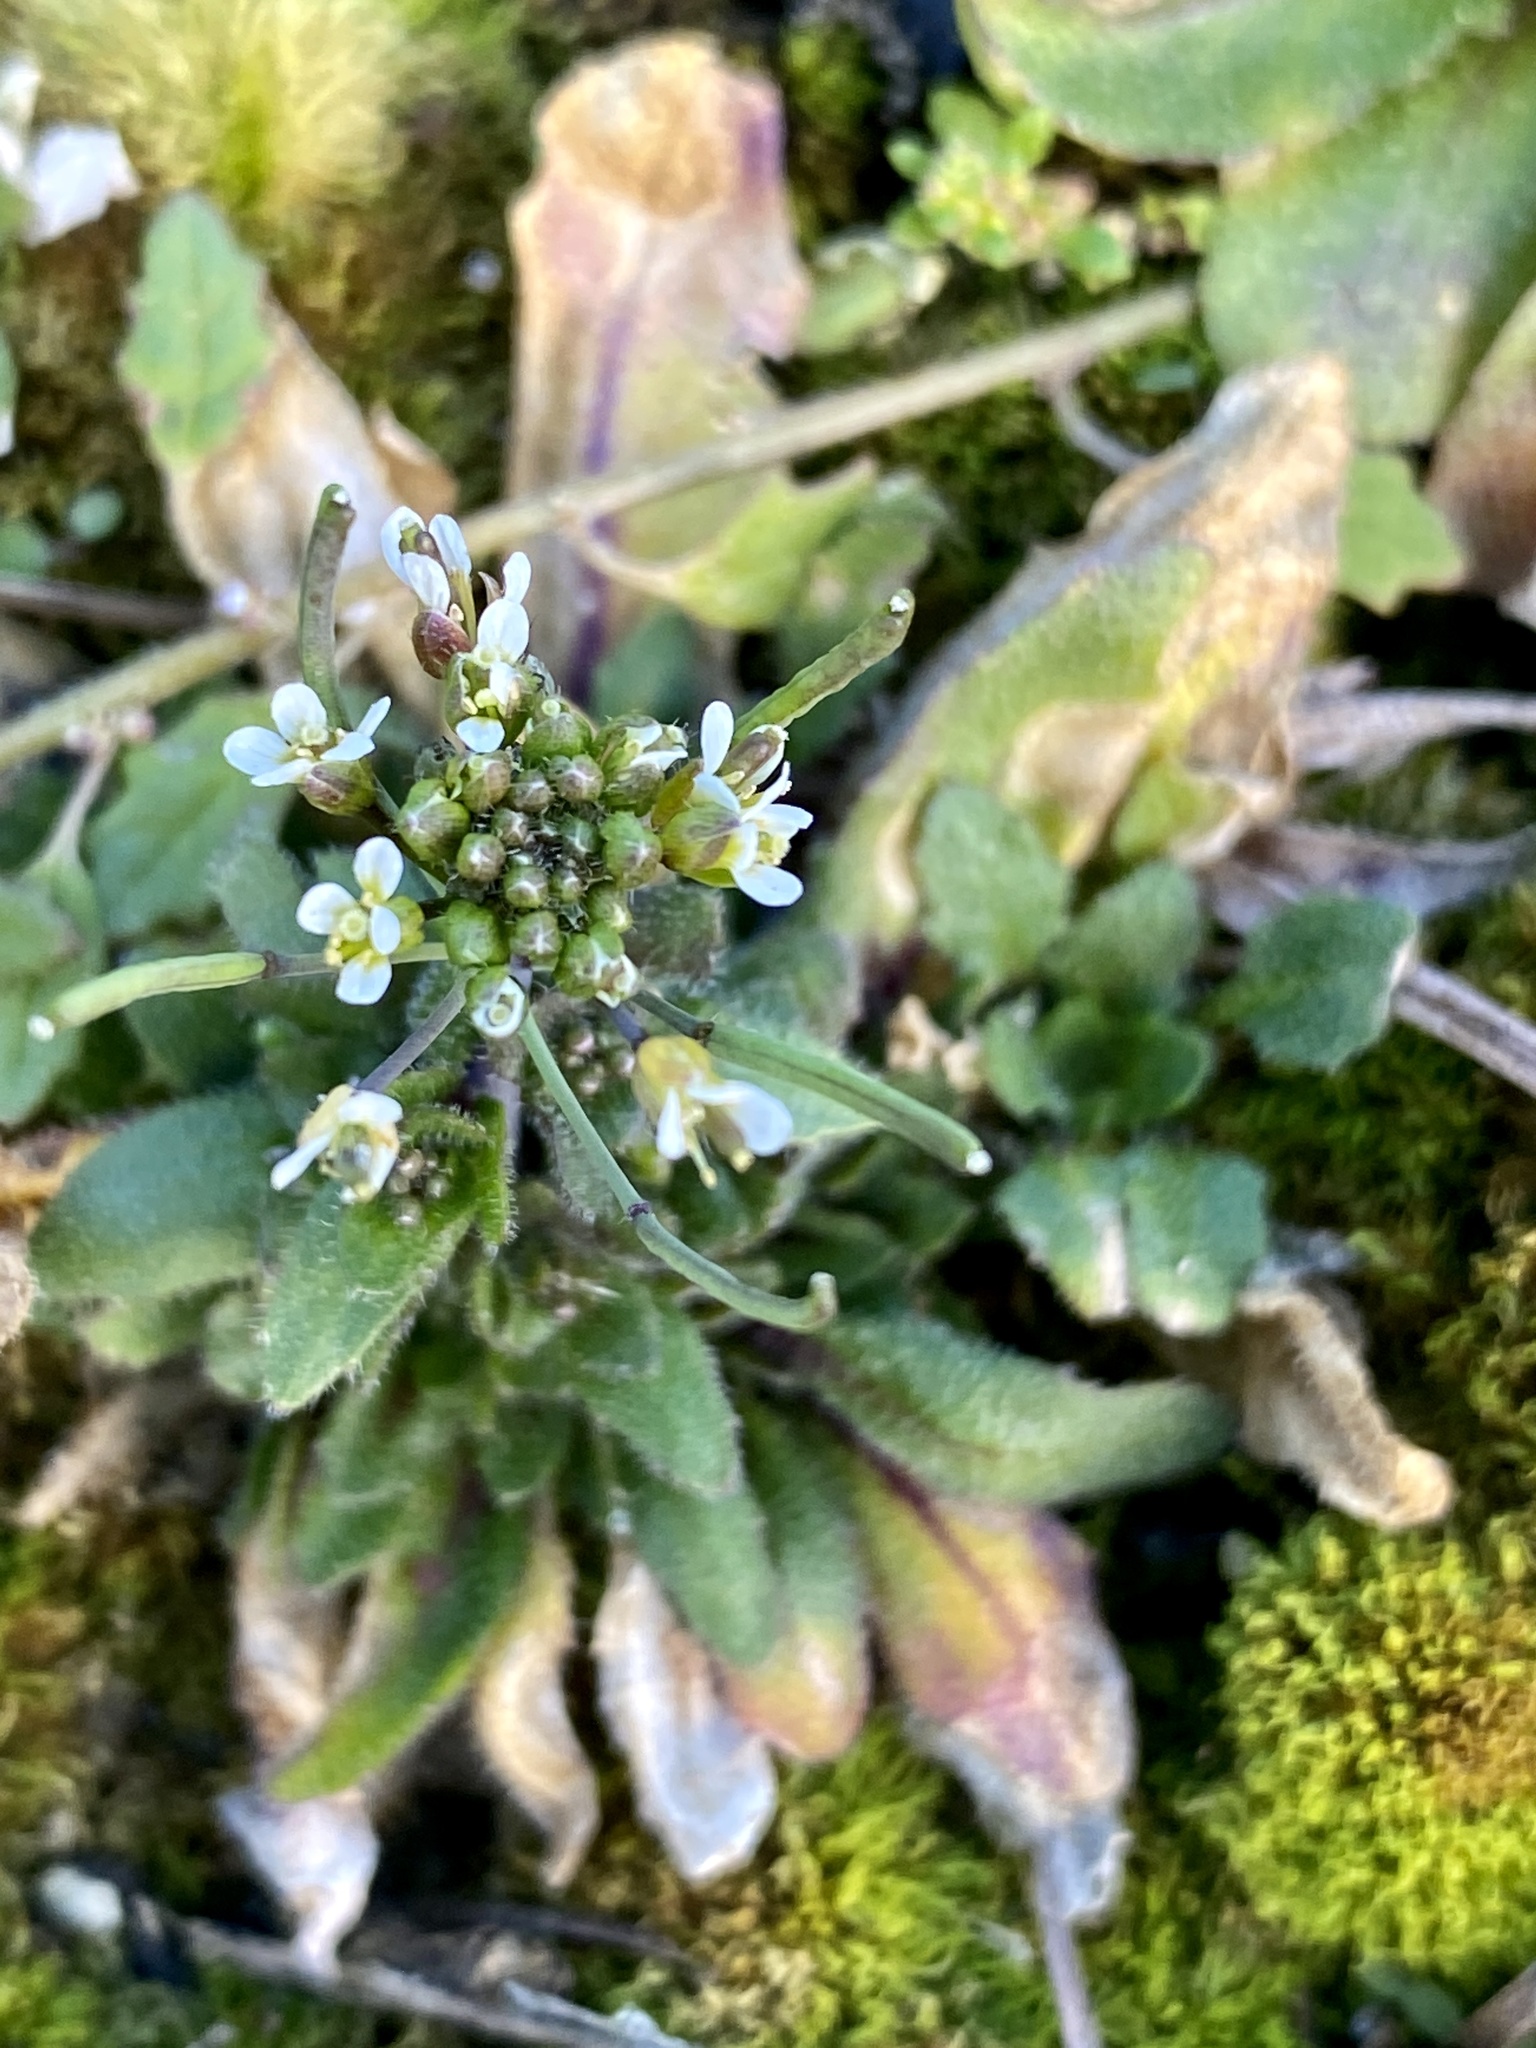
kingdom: Plantae
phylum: Tracheophyta
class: Magnoliopsida
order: Brassicales
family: Brassicaceae
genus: Arabidopsis
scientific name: Arabidopsis thaliana
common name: Thale cress
